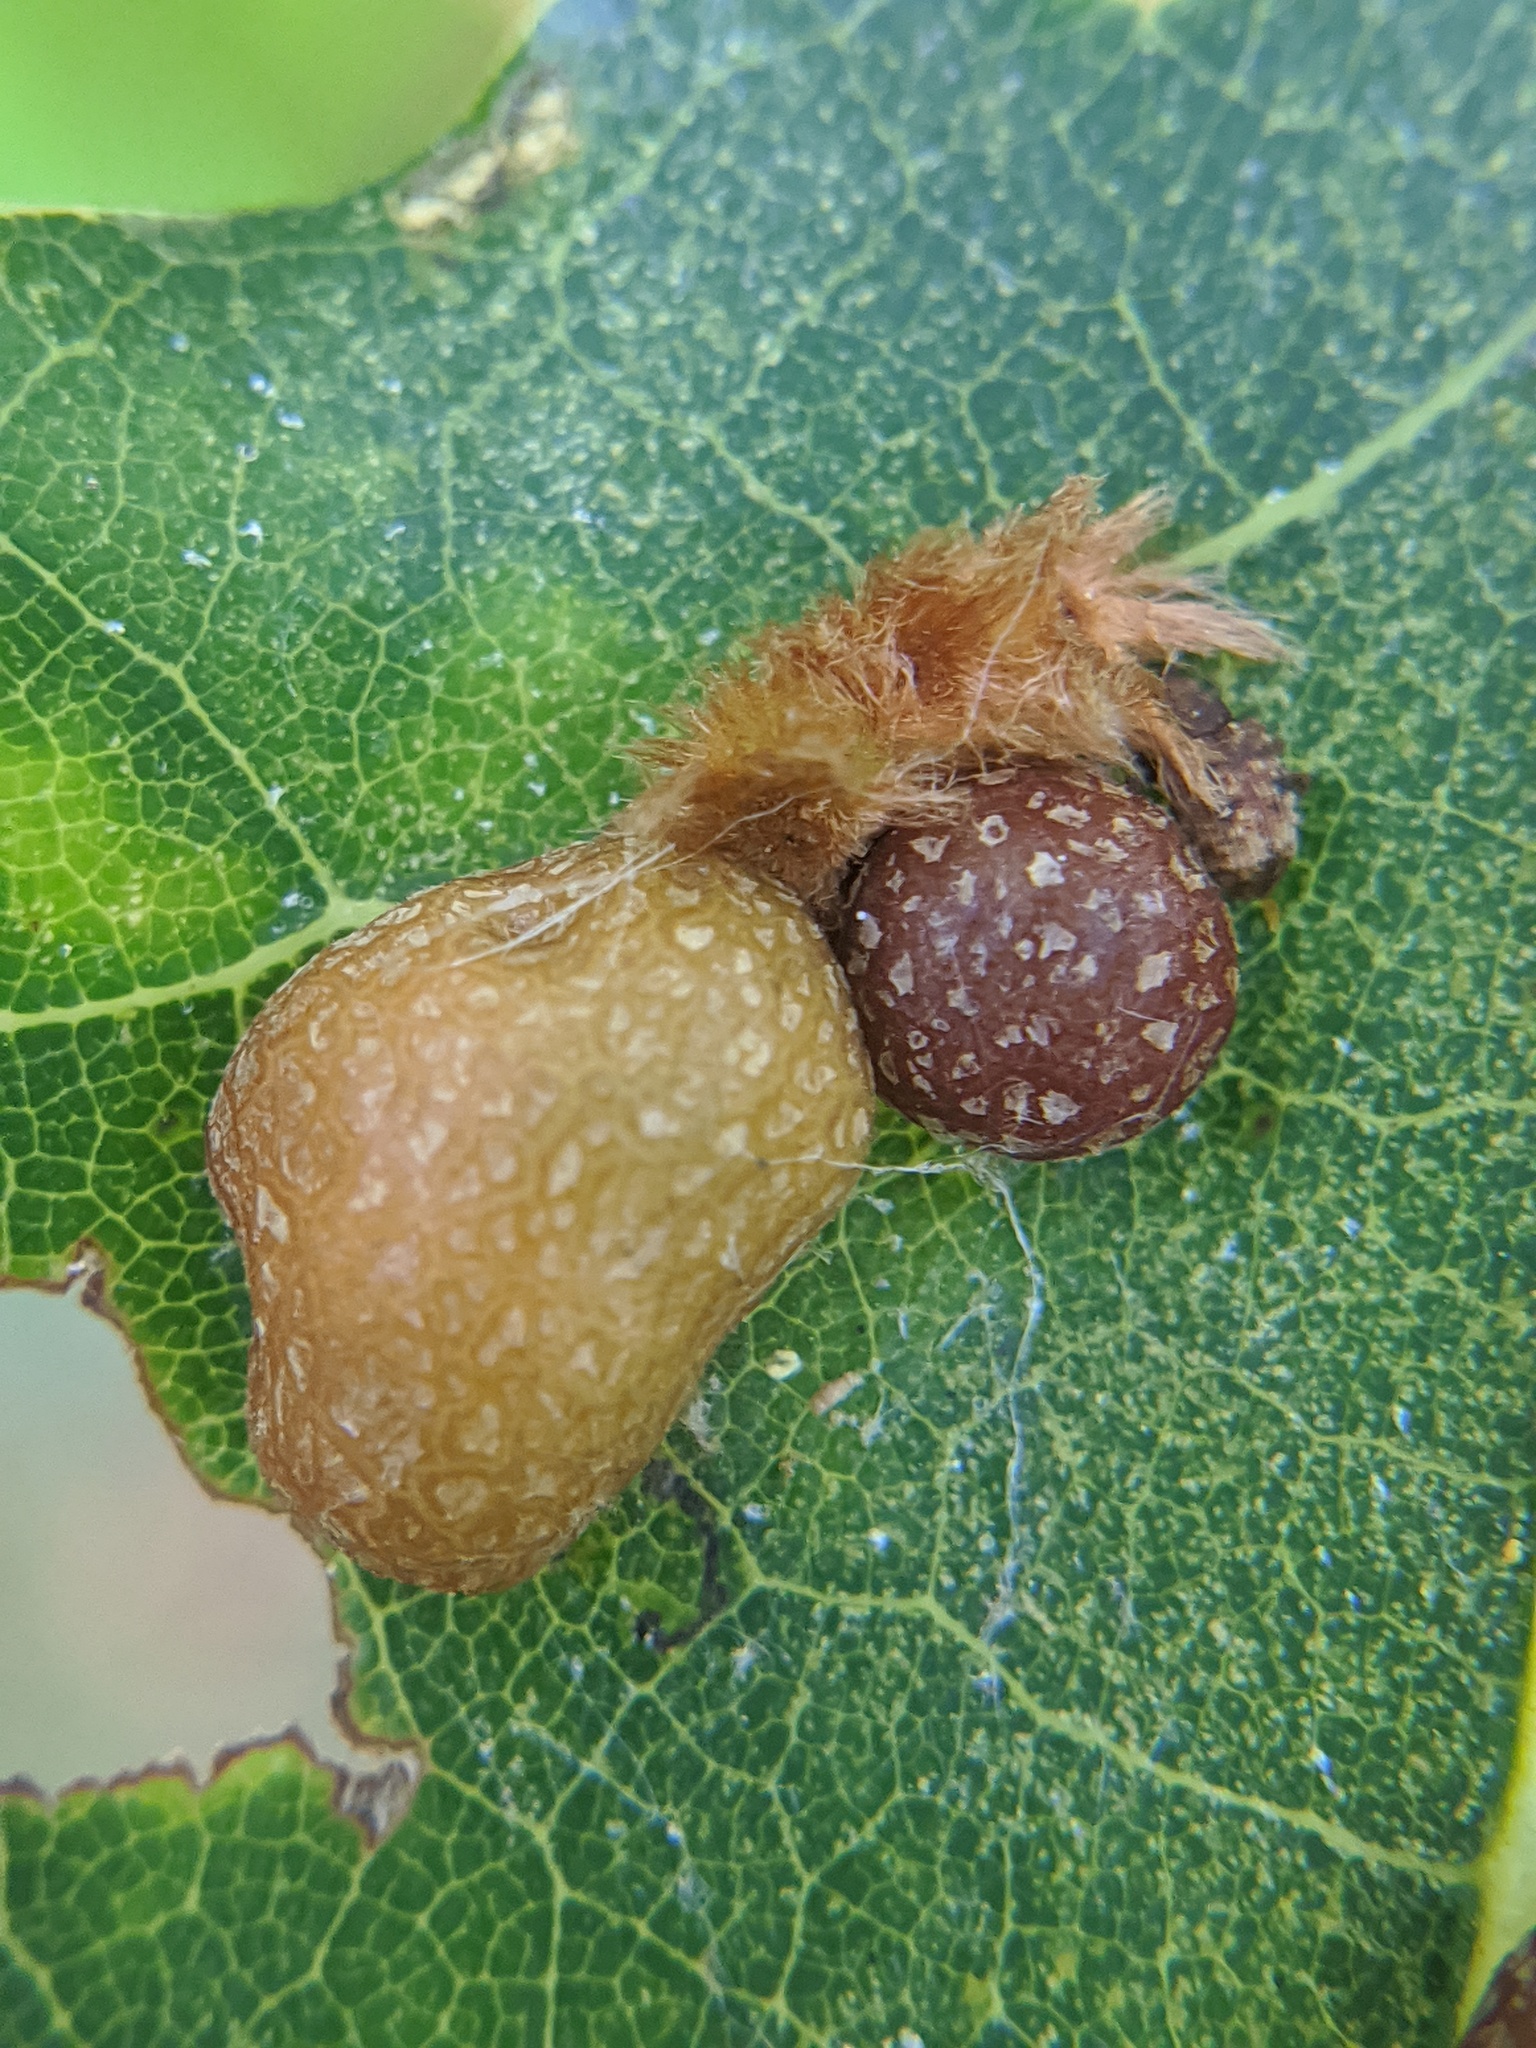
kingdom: Animalia
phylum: Arthropoda
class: Insecta
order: Diptera
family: Cecidomyiidae
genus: Polystepha
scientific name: Polystepha pilulae
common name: Oak leaf gall midge
